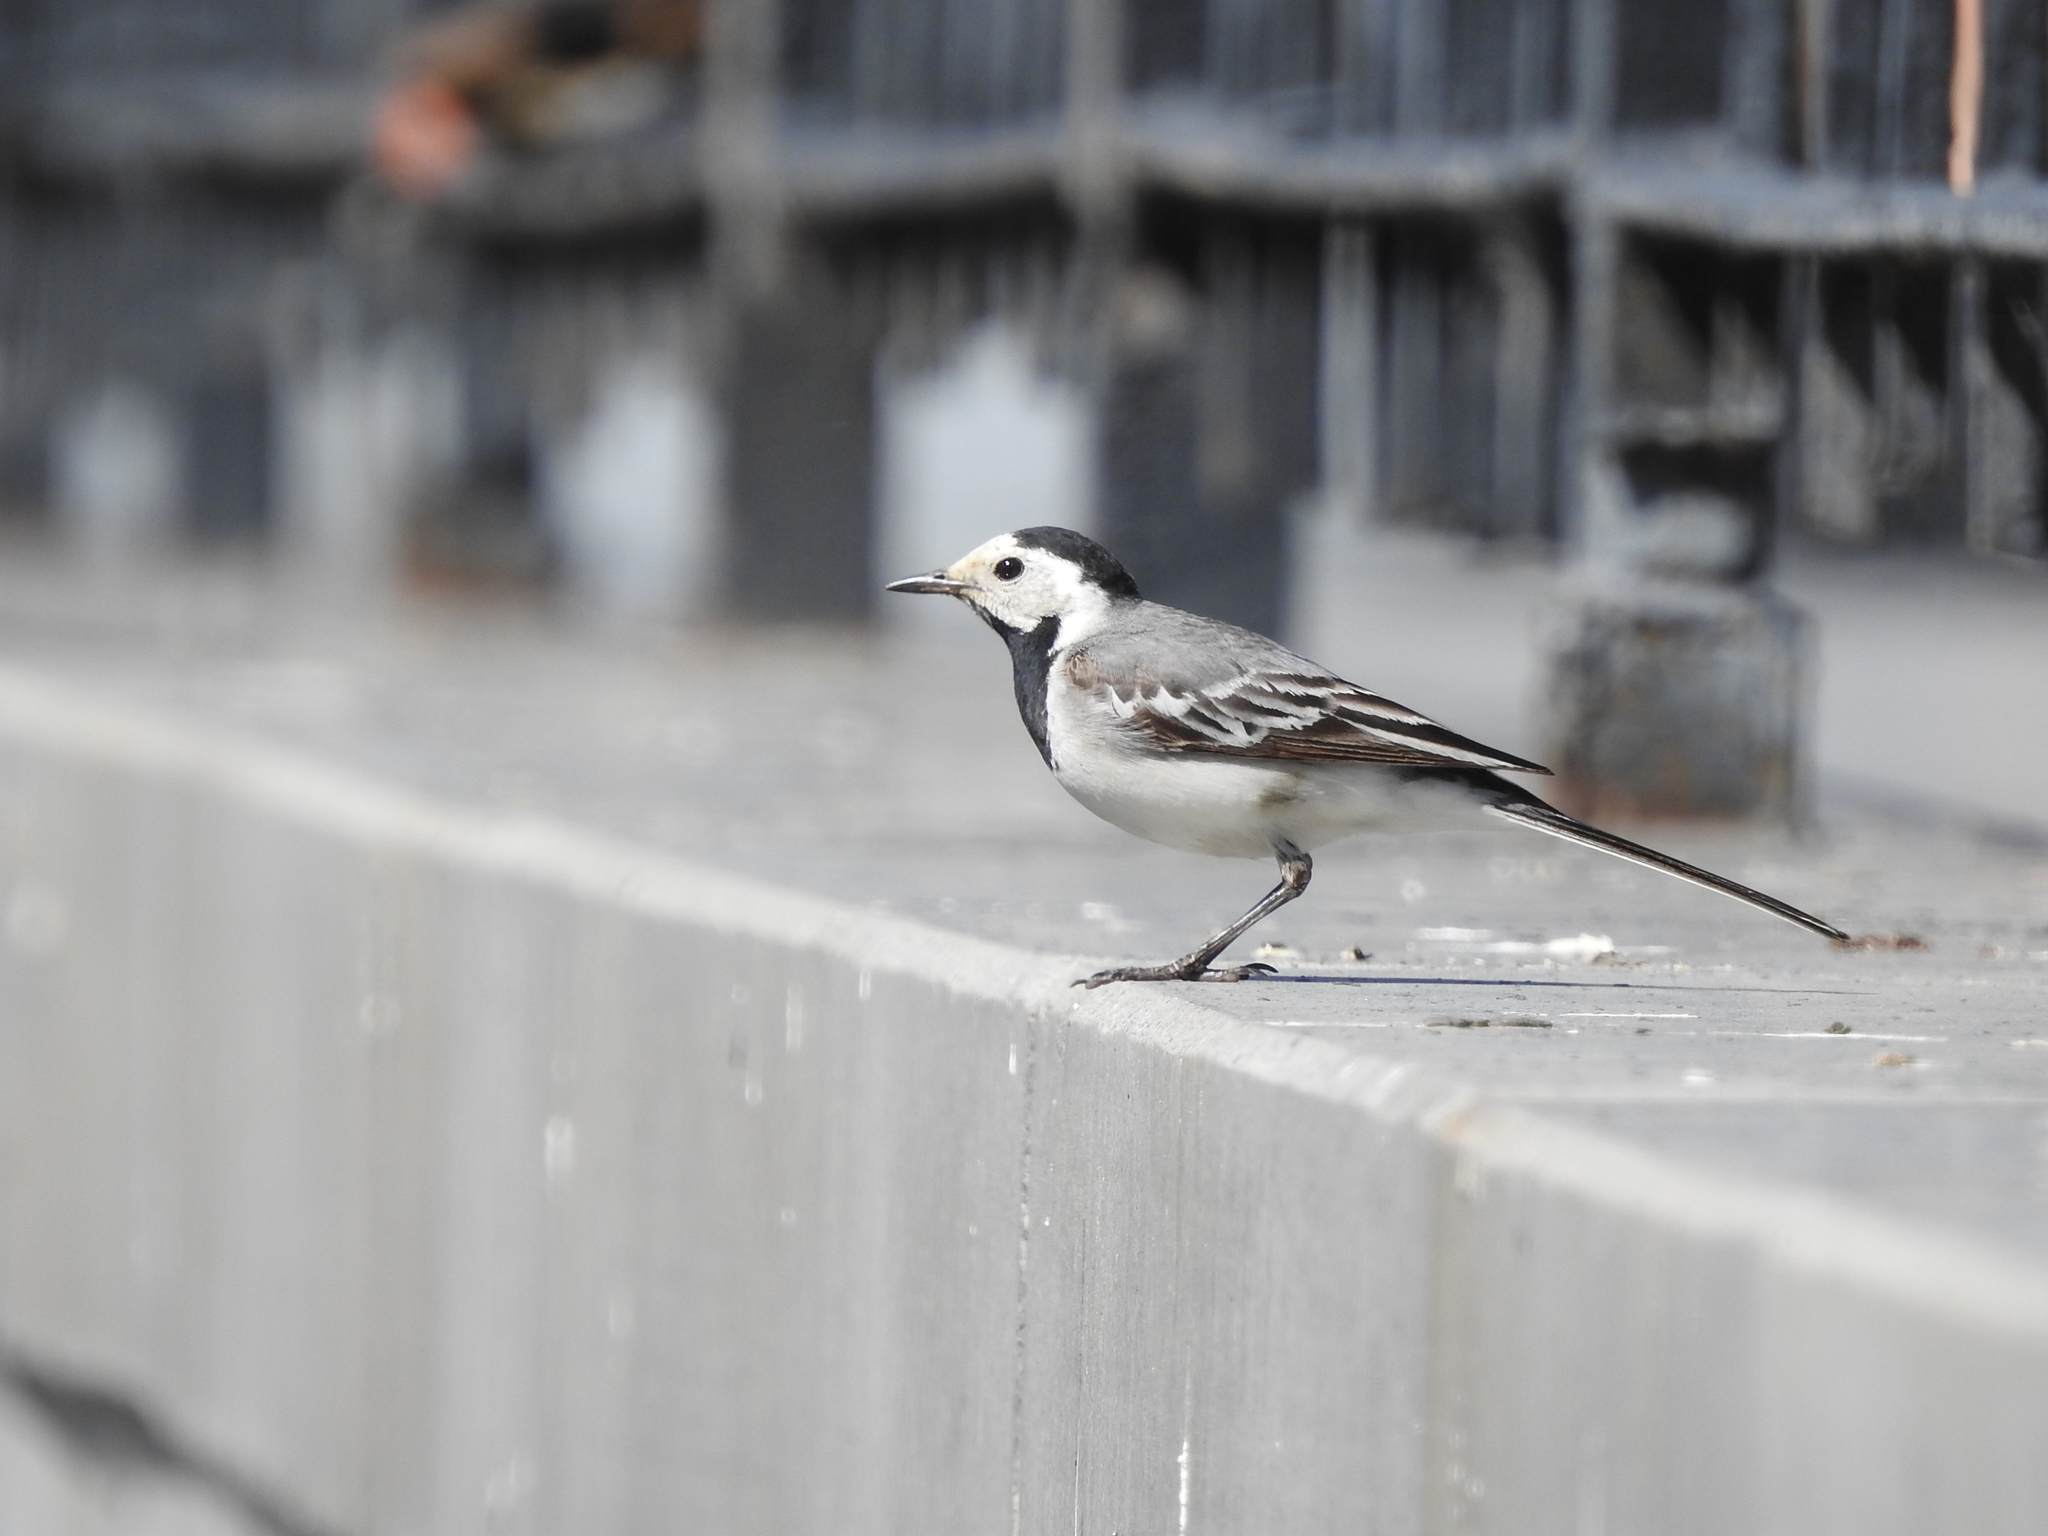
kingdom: Animalia
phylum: Chordata
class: Aves
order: Passeriformes
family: Motacillidae
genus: Motacilla
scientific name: Motacilla alba
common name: White wagtail
